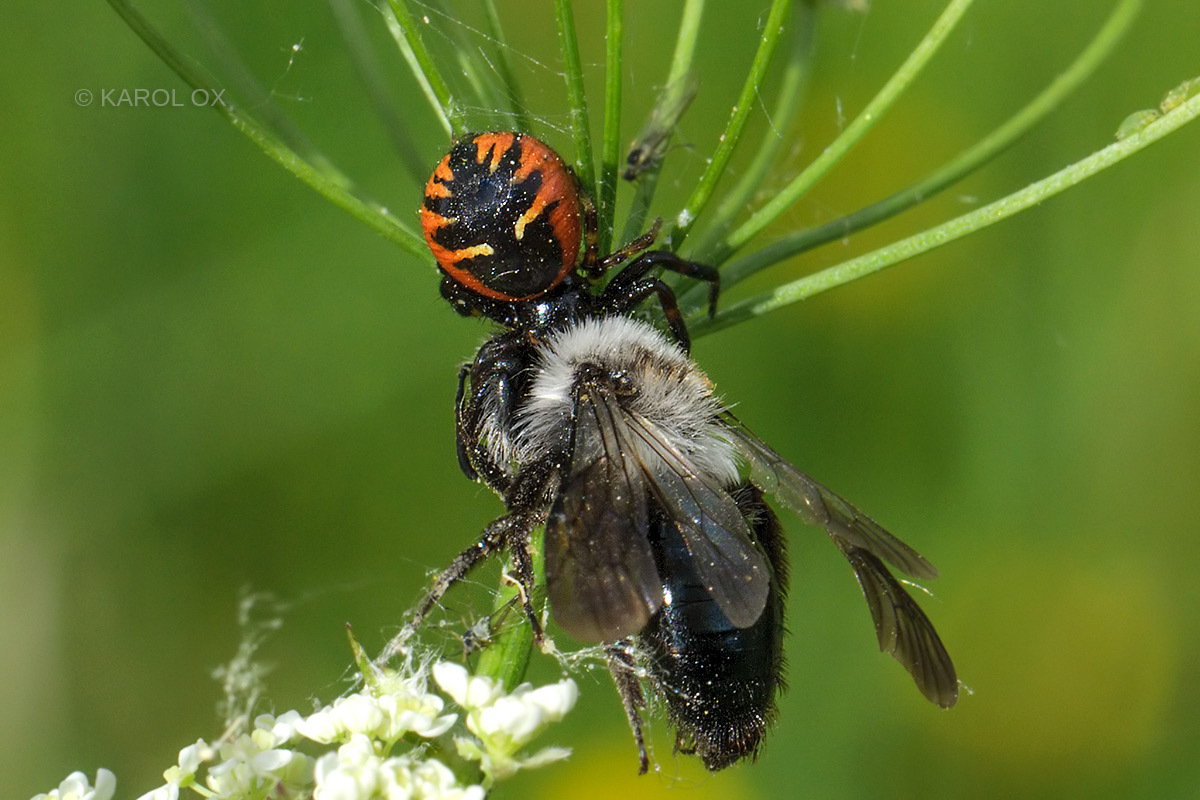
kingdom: Animalia
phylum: Arthropoda
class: Arachnida
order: Araneae
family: Thomisidae
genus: Synema
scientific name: Synema globosum
